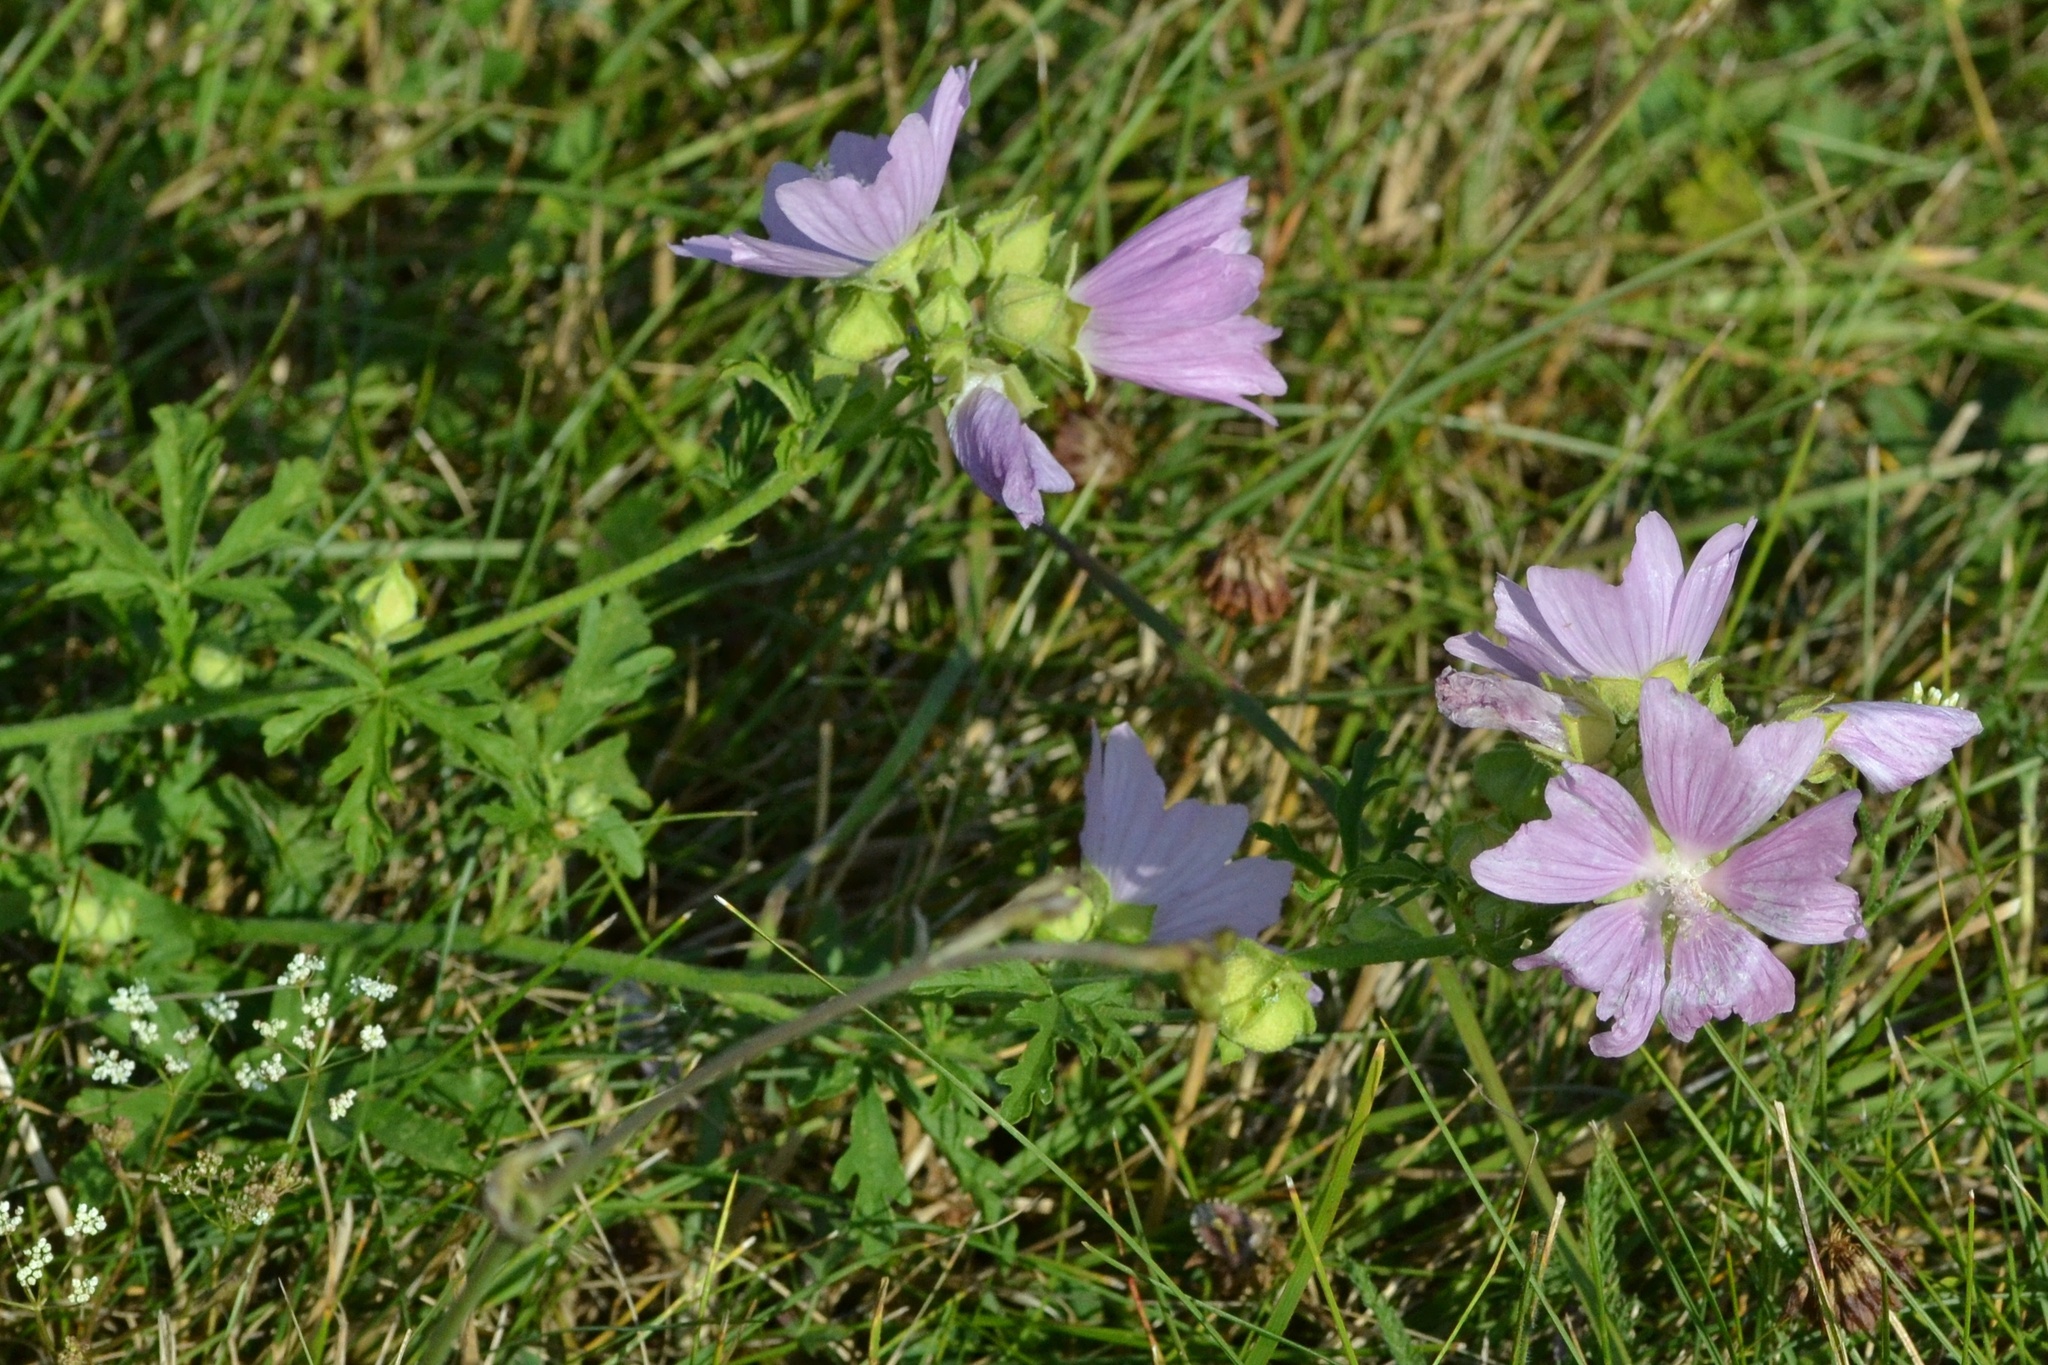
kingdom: Plantae
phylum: Tracheophyta
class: Magnoliopsida
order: Malvales
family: Malvaceae
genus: Malva
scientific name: Malva alcea
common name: Greater musk-mallow
